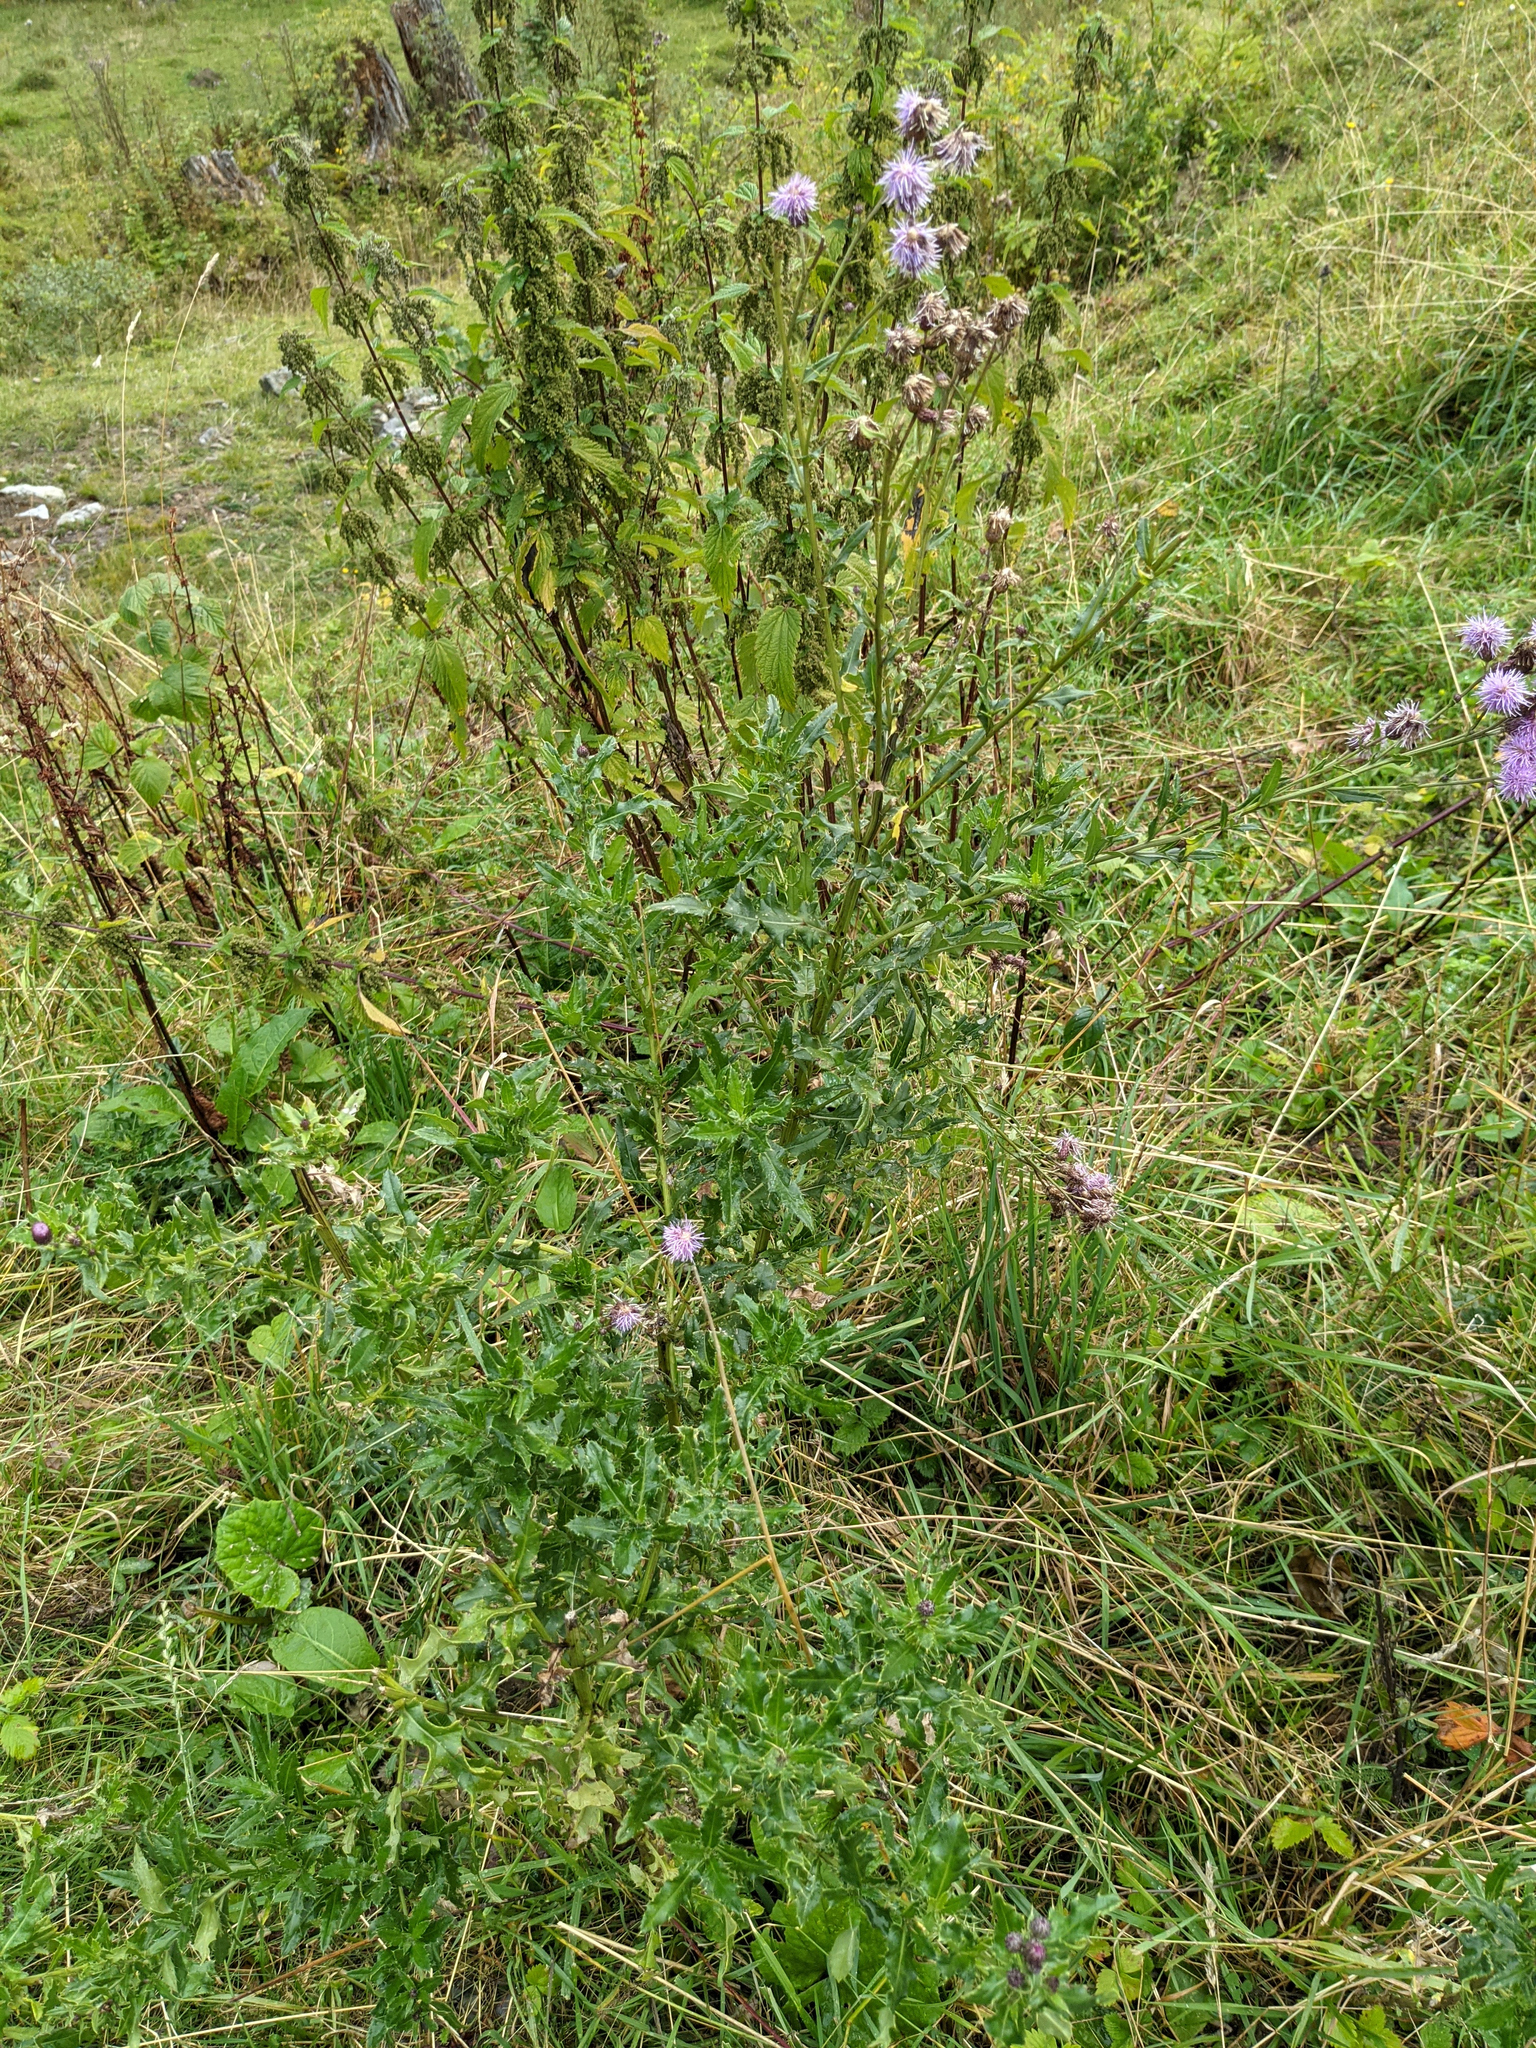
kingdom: Plantae
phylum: Tracheophyta
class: Magnoliopsida
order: Asterales
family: Asteraceae
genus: Cirsium
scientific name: Cirsium arvense
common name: Creeping thistle
